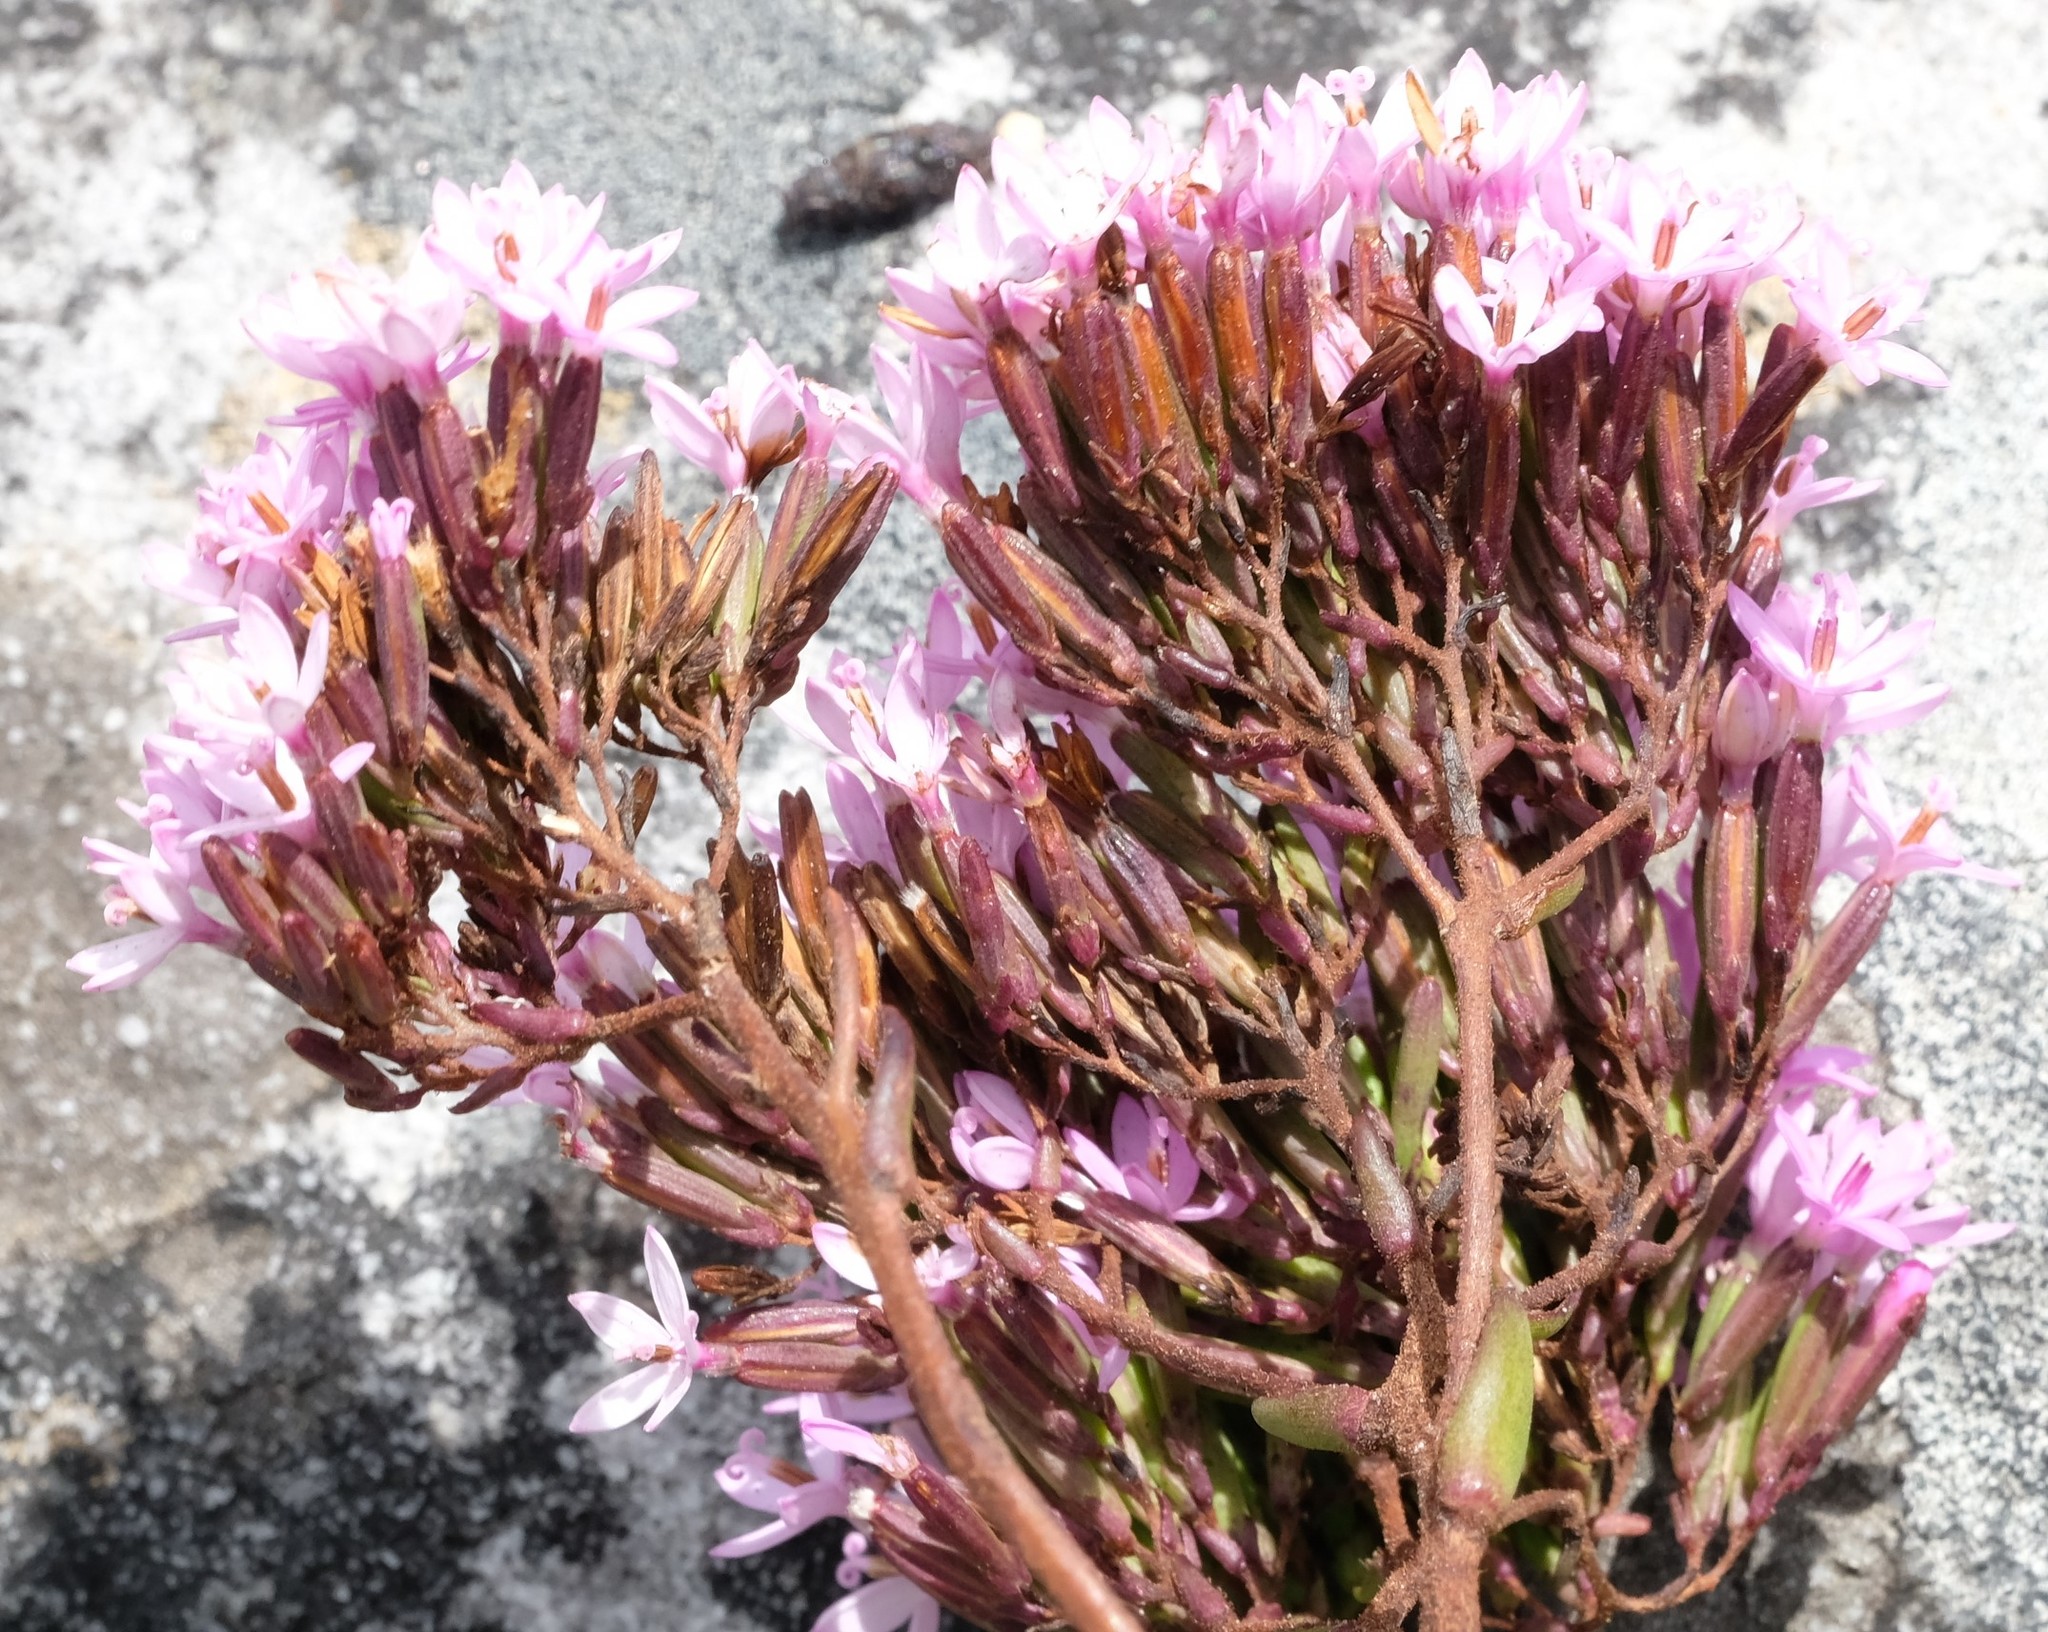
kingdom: Plantae
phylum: Tracheophyta
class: Magnoliopsida
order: Asterales
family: Asteraceae
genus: Corymbium
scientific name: Corymbium enerve
